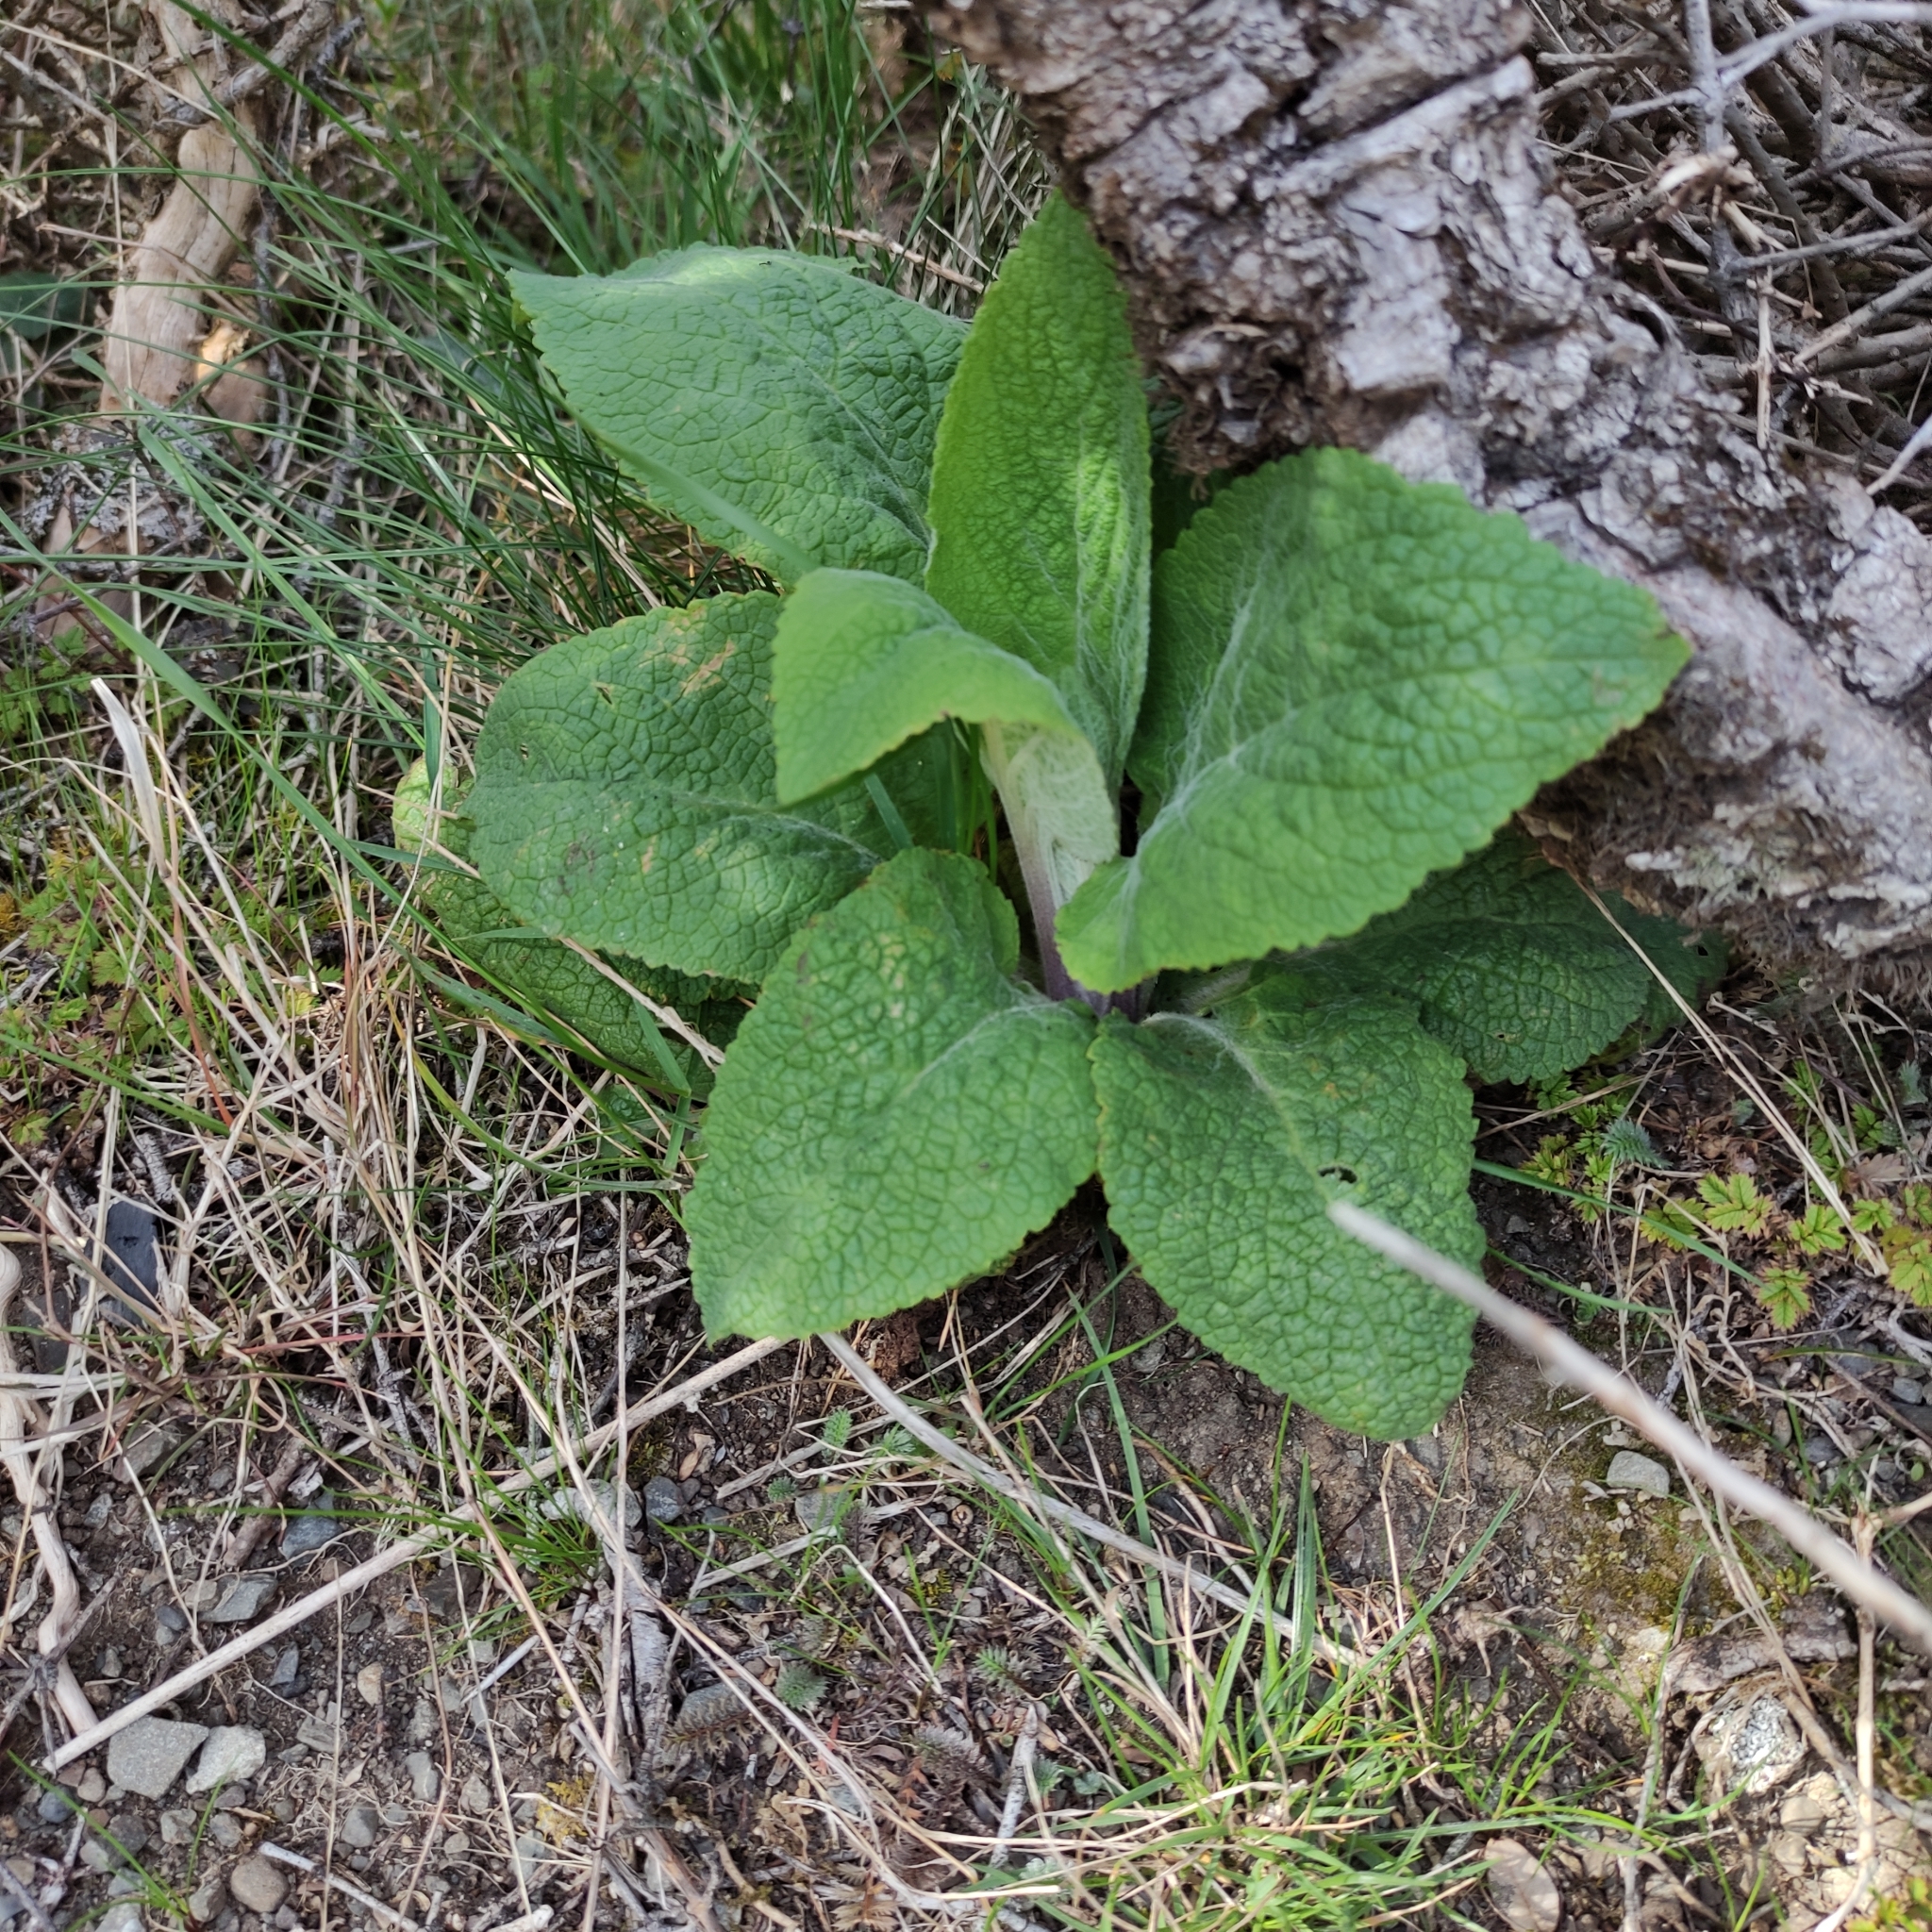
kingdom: Plantae
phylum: Tracheophyta
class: Magnoliopsida
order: Lamiales
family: Plantaginaceae
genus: Digitalis
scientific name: Digitalis purpurea
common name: Foxglove
